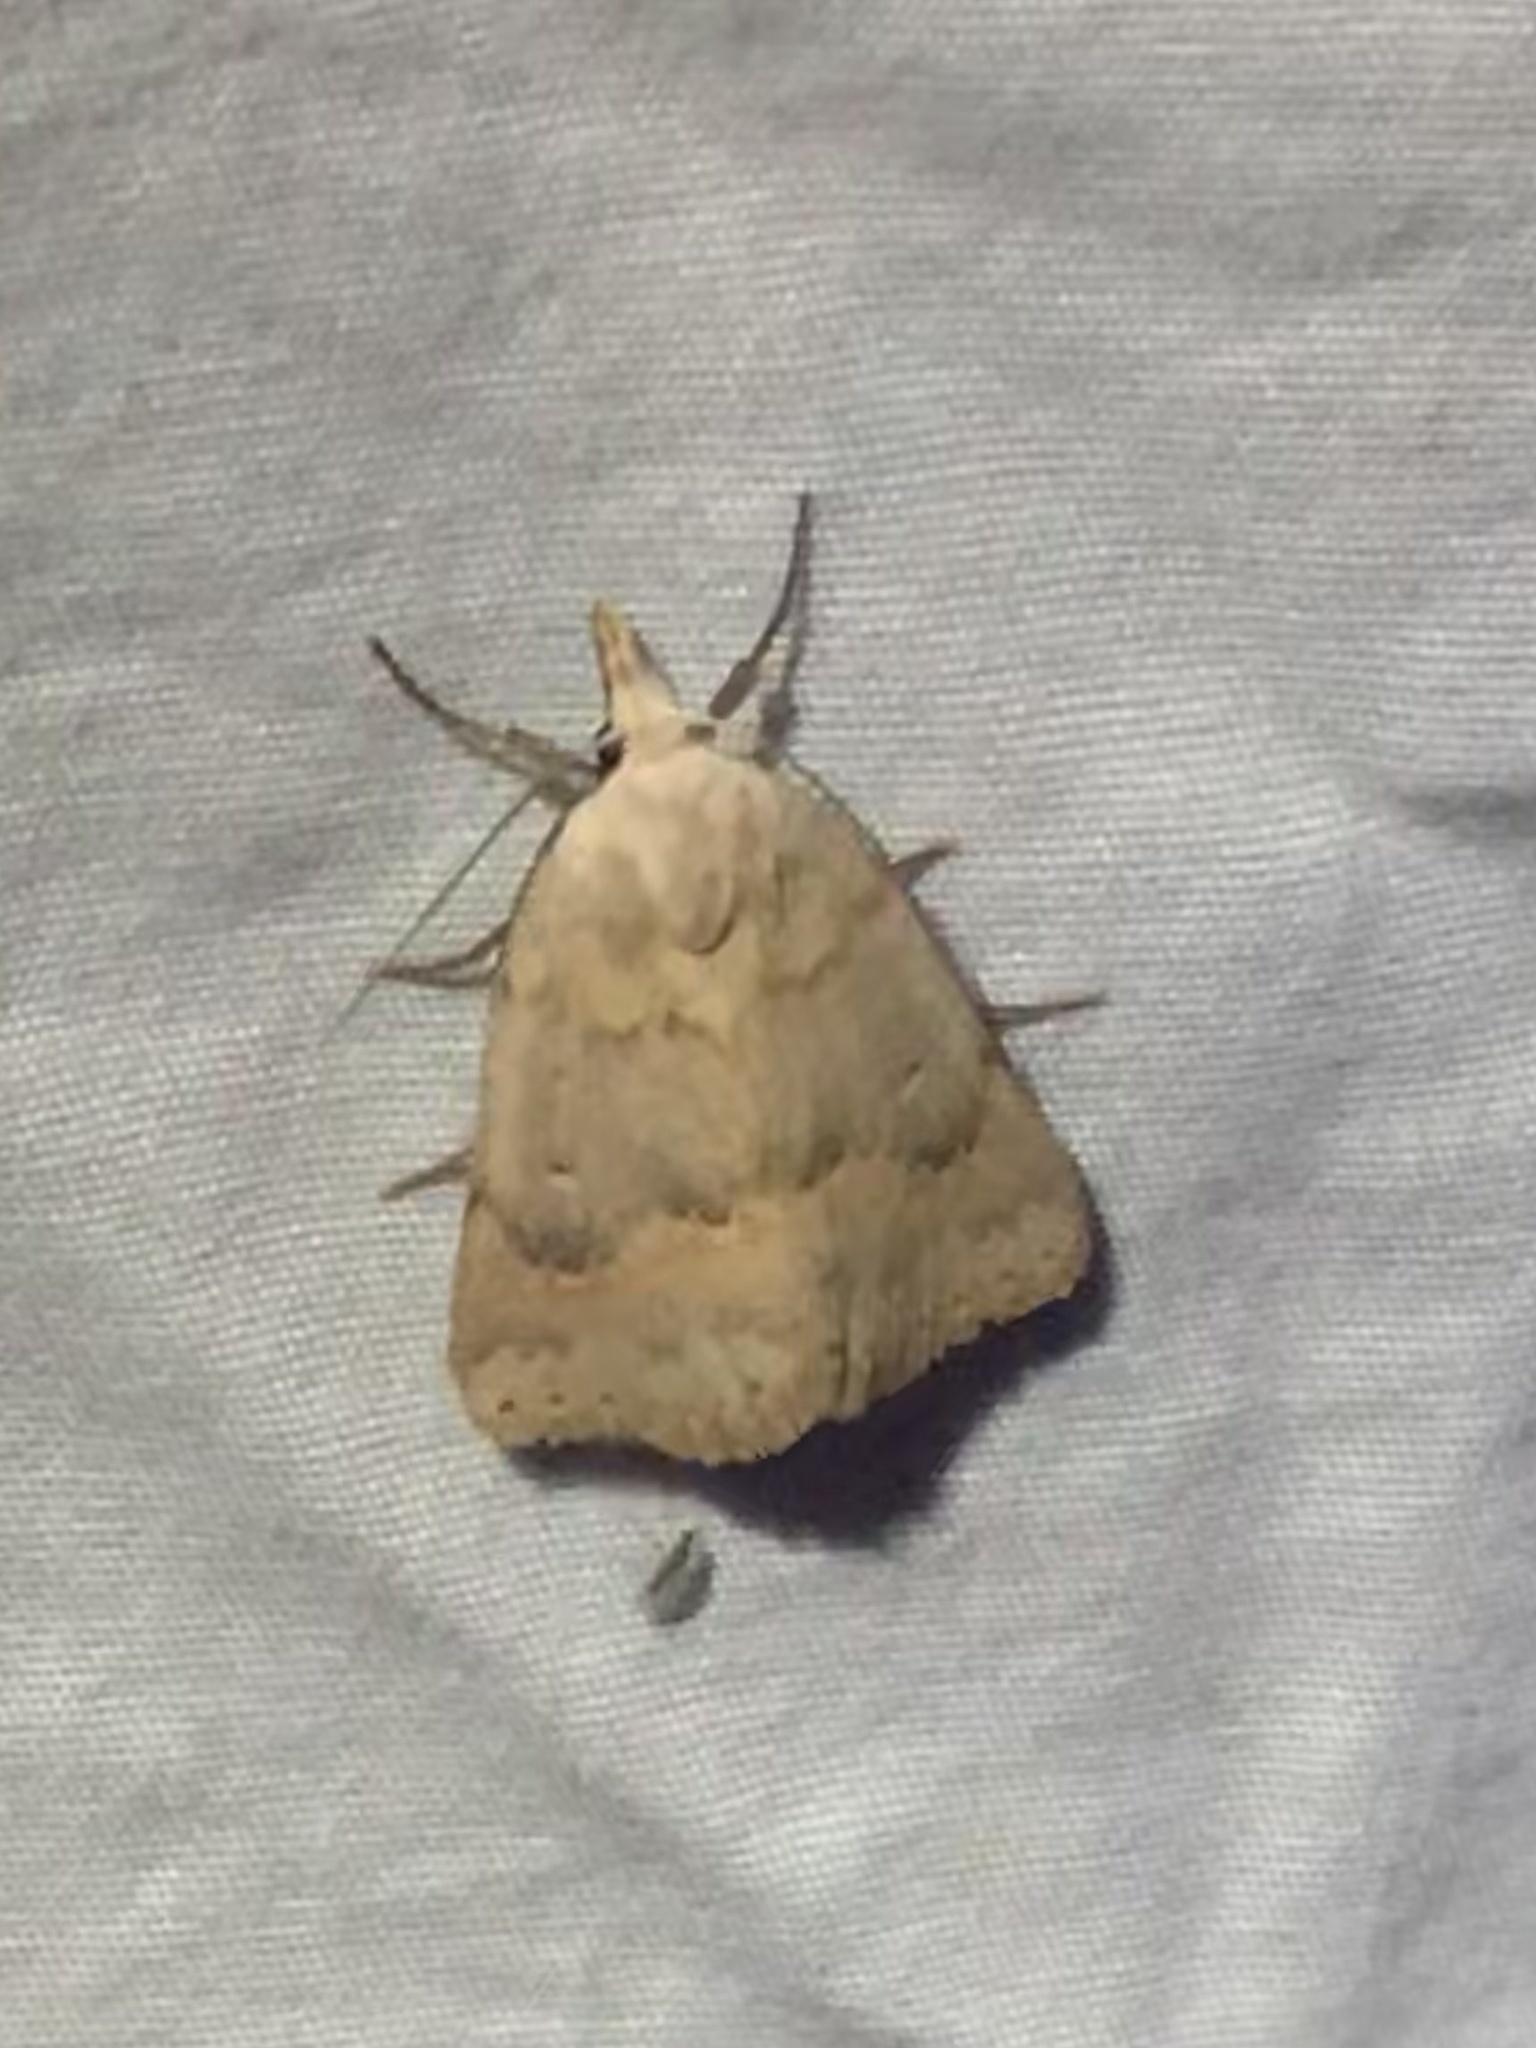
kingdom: Animalia
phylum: Arthropoda
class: Insecta
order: Lepidoptera
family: Erebidae
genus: Pseudorgyia
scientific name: Pseudorgyia russula
